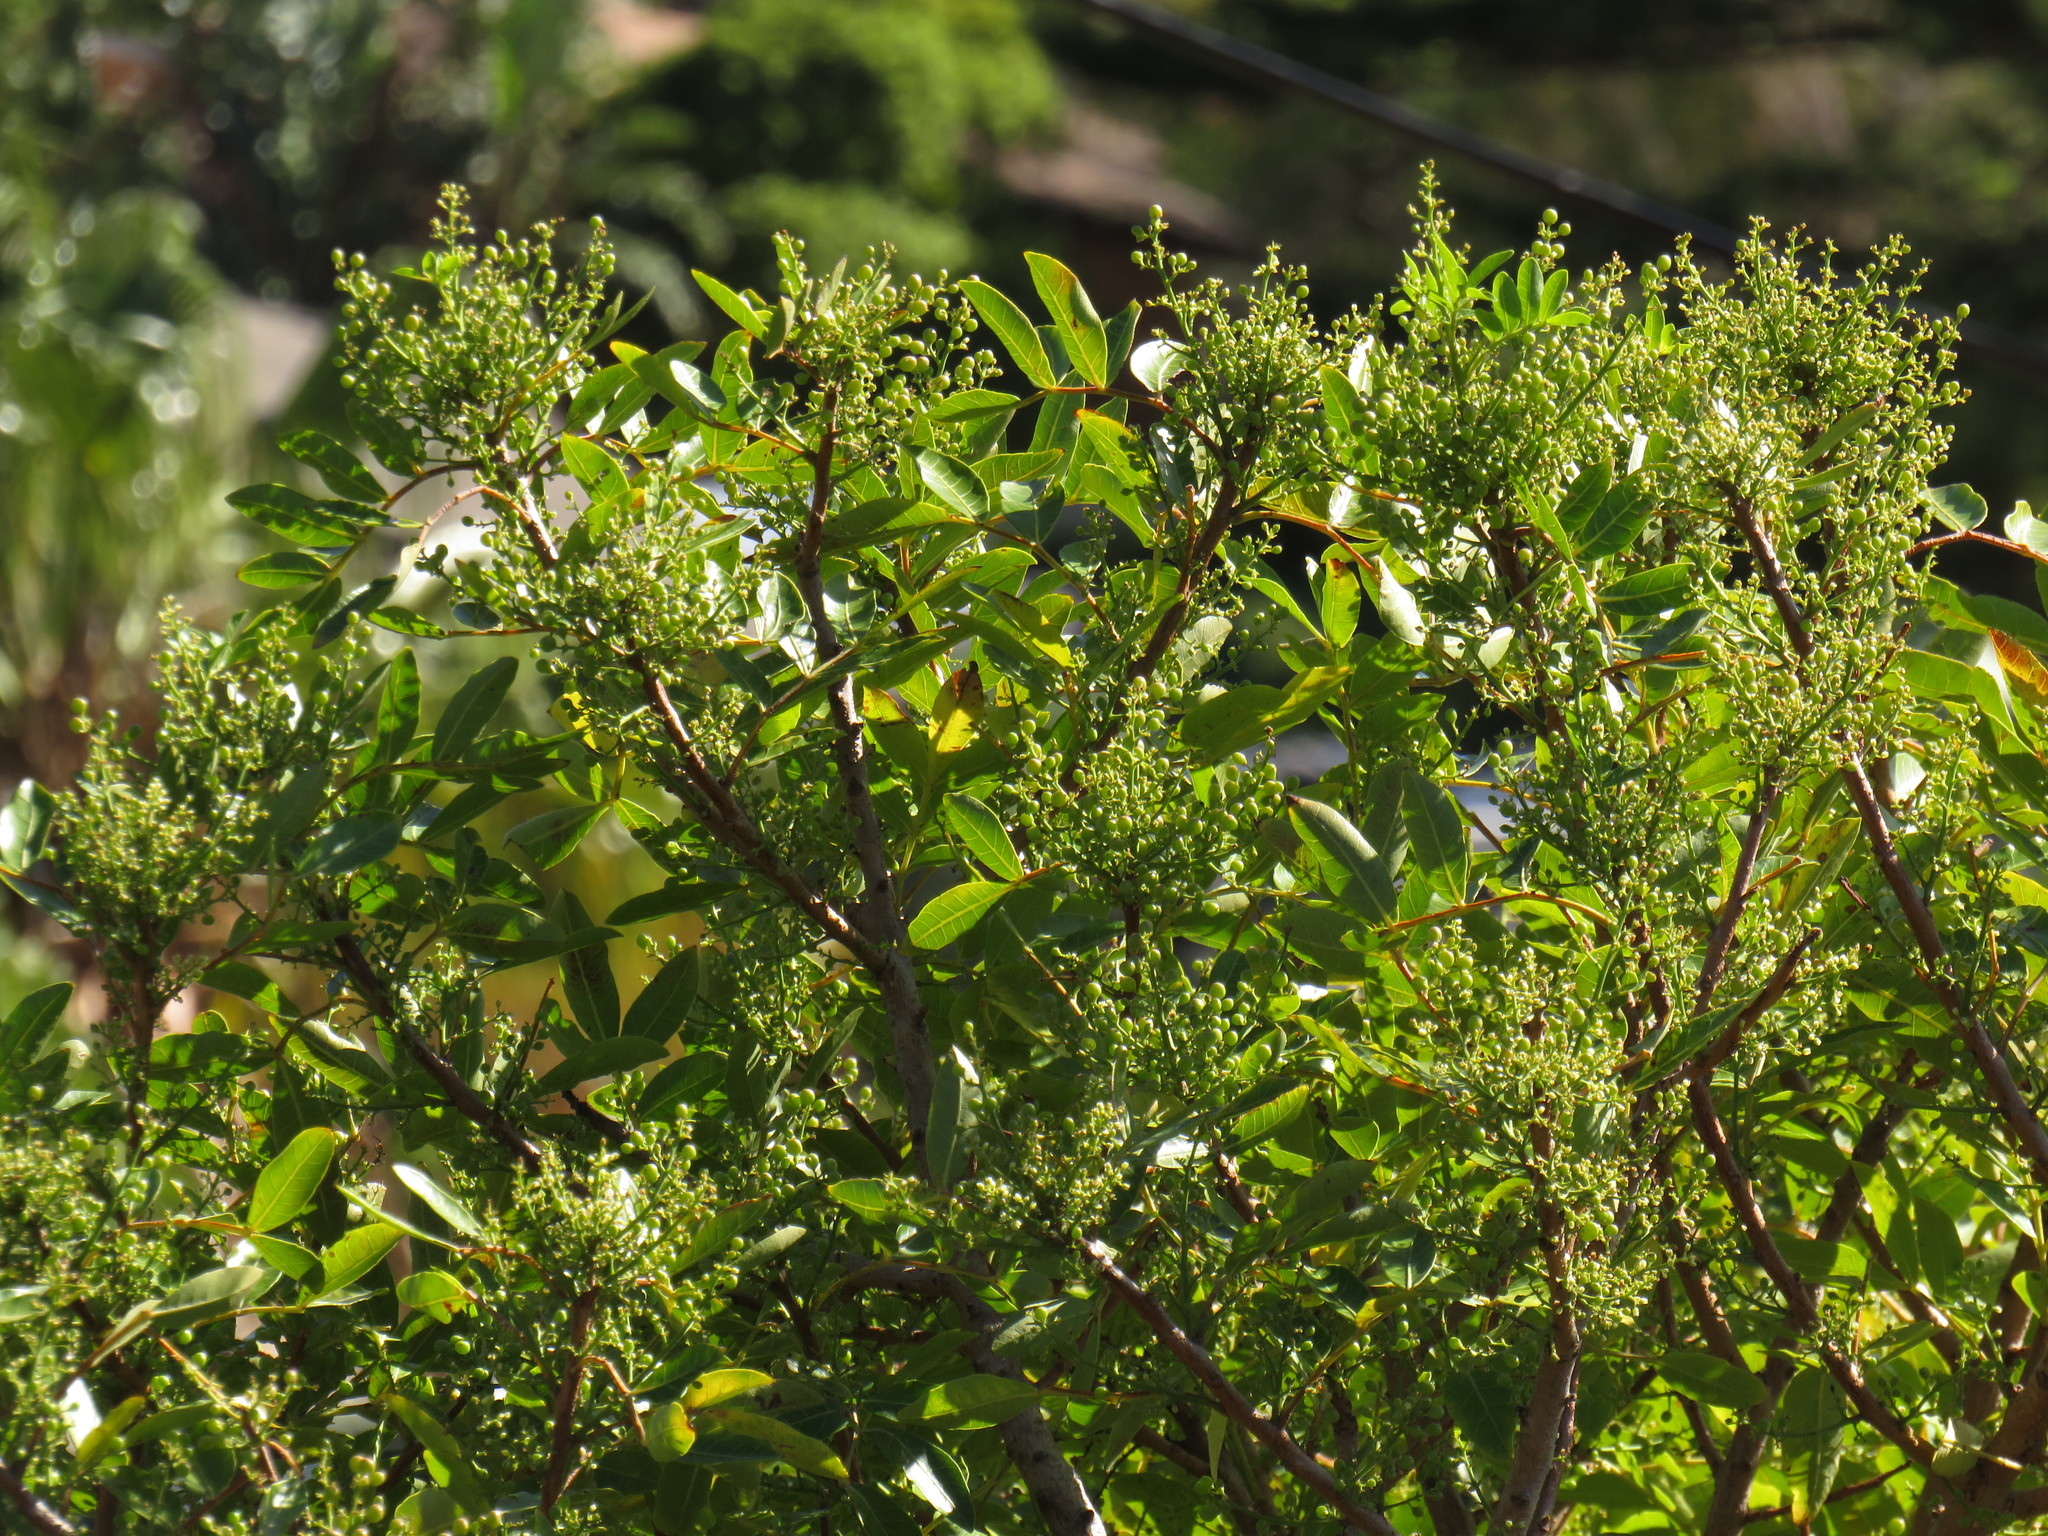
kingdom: Plantae
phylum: Tracheophyta
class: Magnoliopsida
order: Sapindales
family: Anacardiaceae
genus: Schinus
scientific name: Schinus terebinthifolia
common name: Brazilian peppertree
